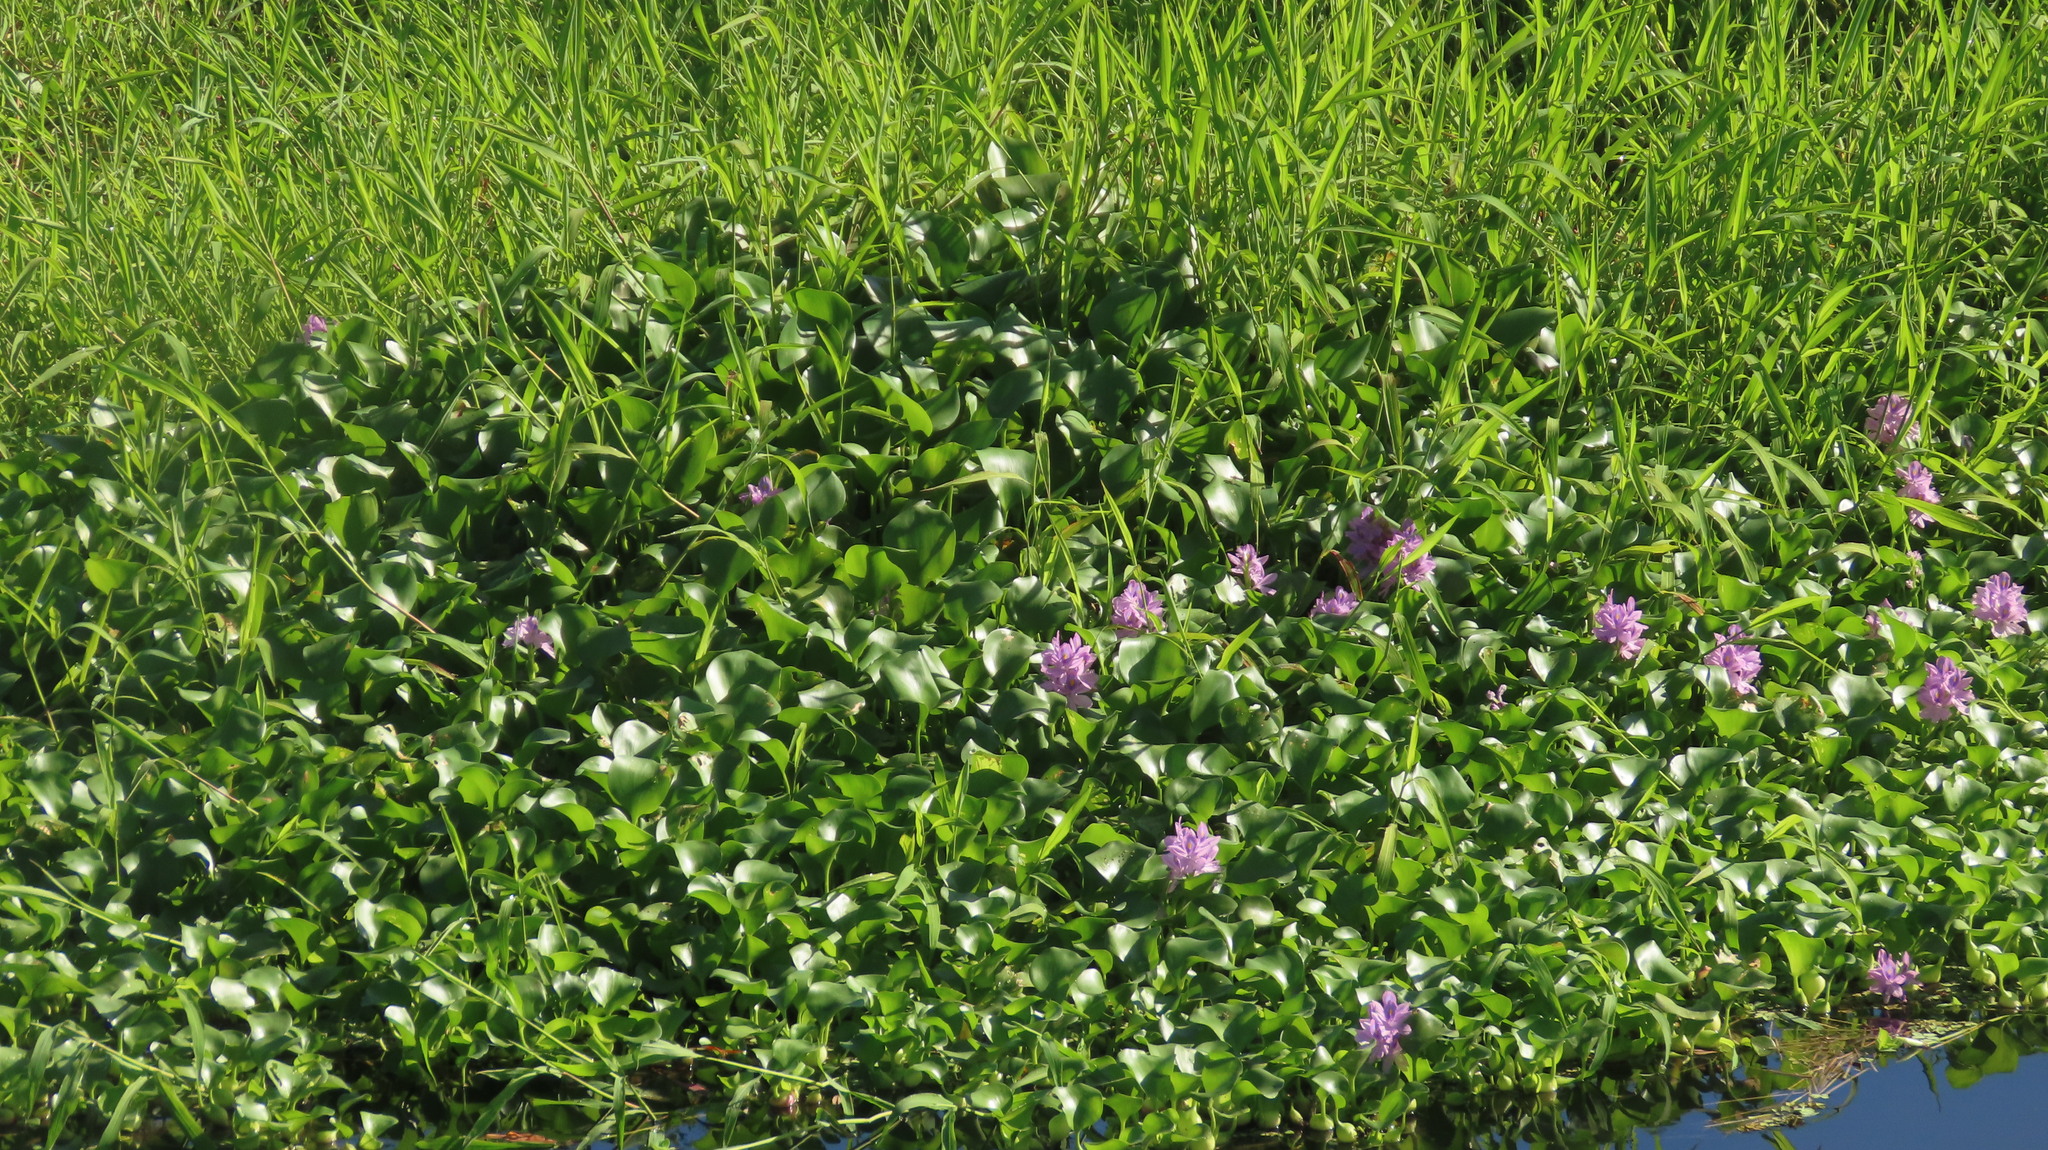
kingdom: Plantae
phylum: Tracheophyta
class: Liliopsida
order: Commelinales
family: Pontederiaceae
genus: Pontederia
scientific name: Pontederia crassipes
